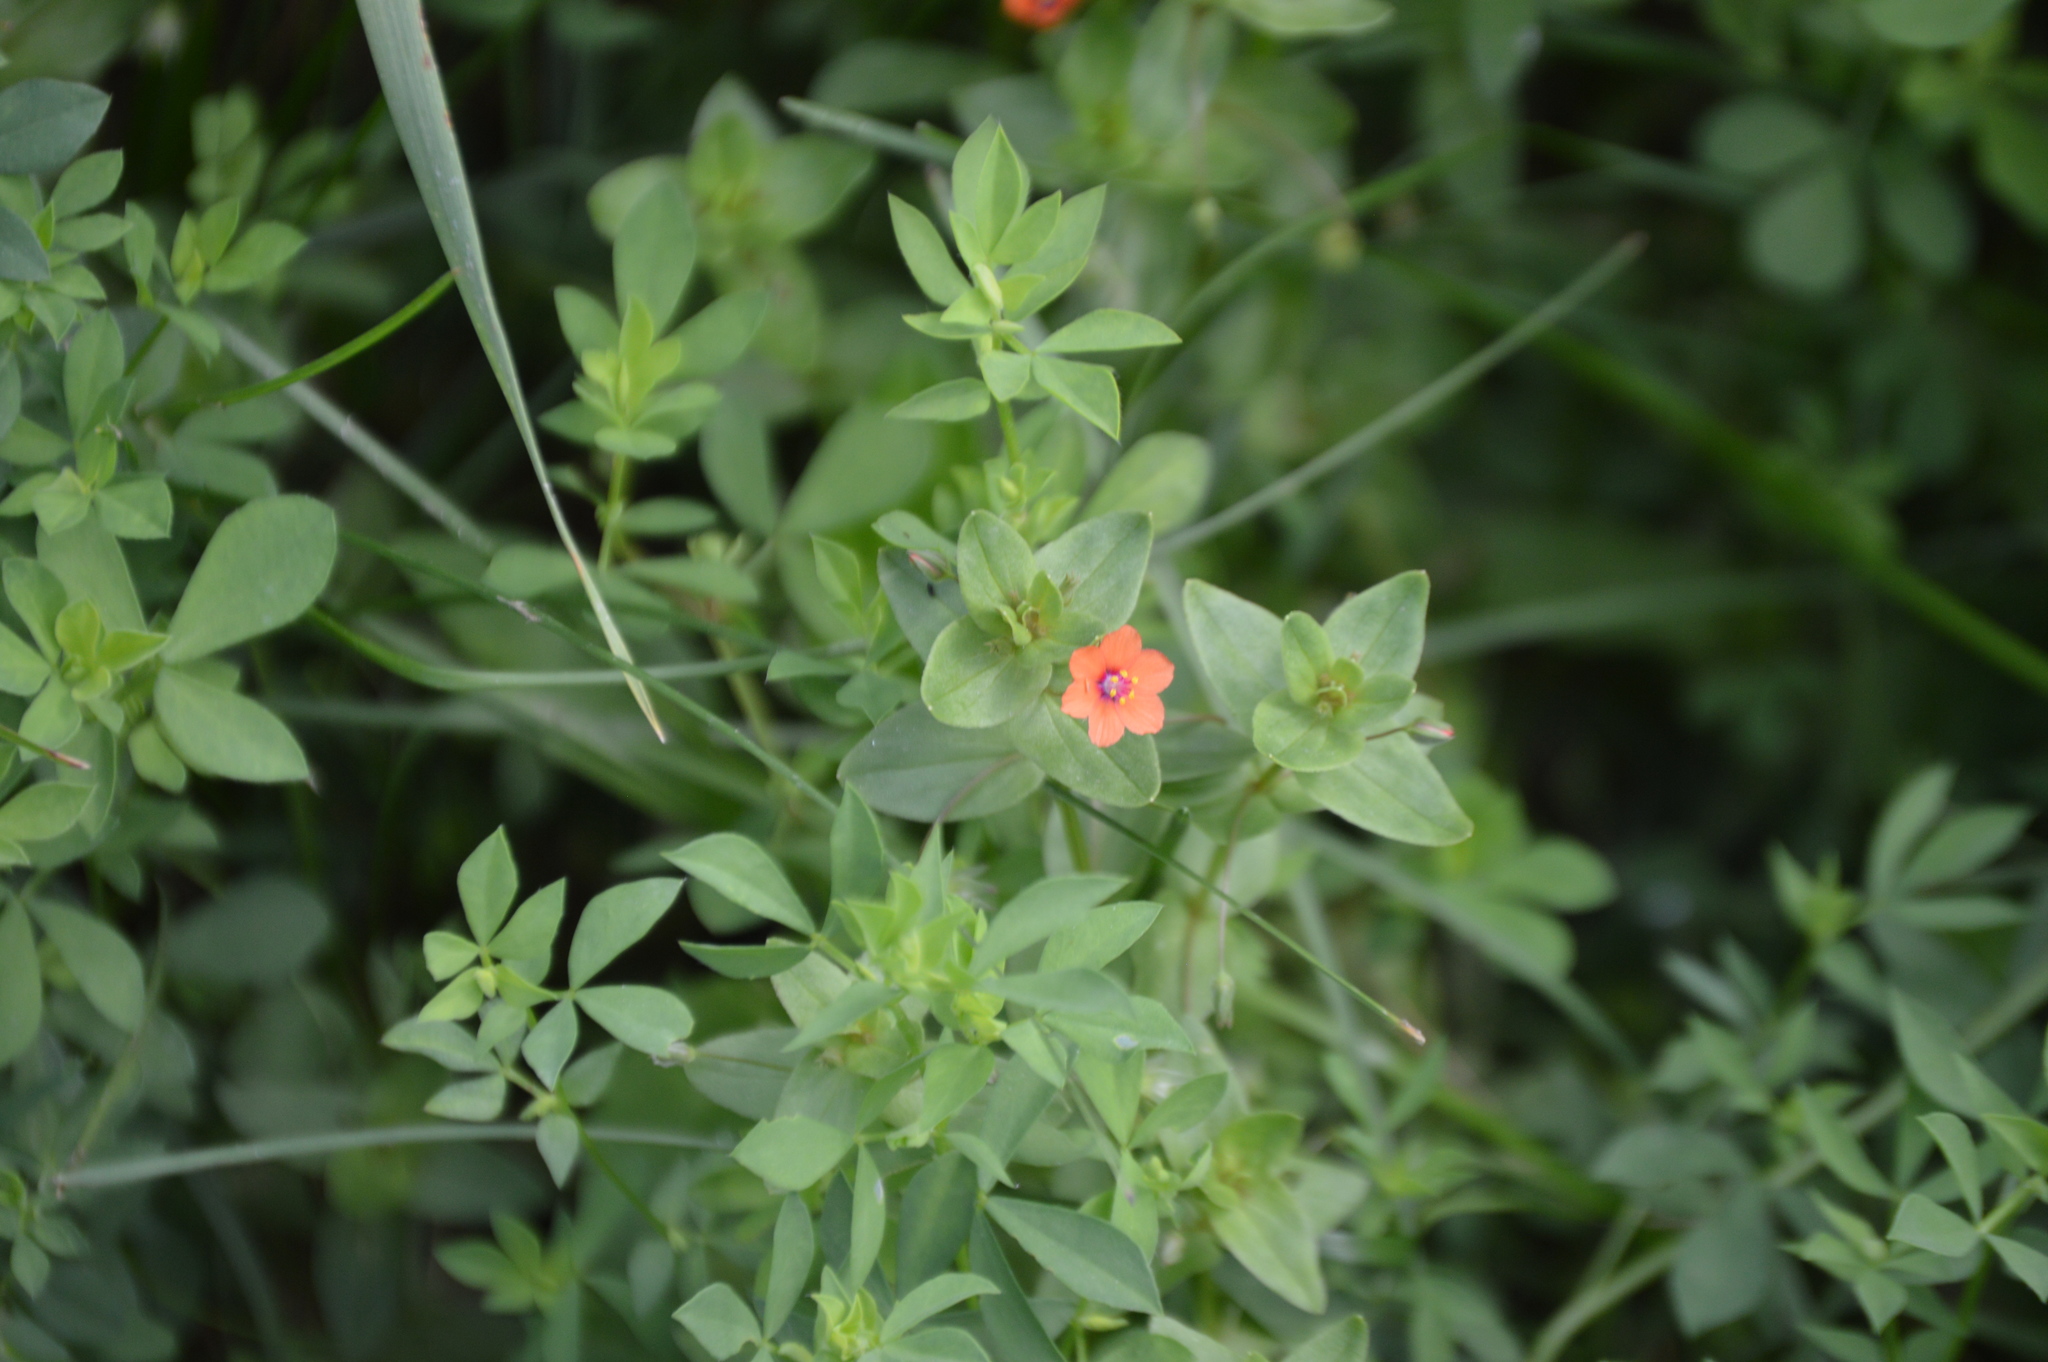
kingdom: Plantae
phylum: Tracheophyta
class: Magnoliopsida
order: Ericales
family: Primulaceae
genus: Lysimachia
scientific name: Lysimachia arvensis
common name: Scarlet pimpernel
